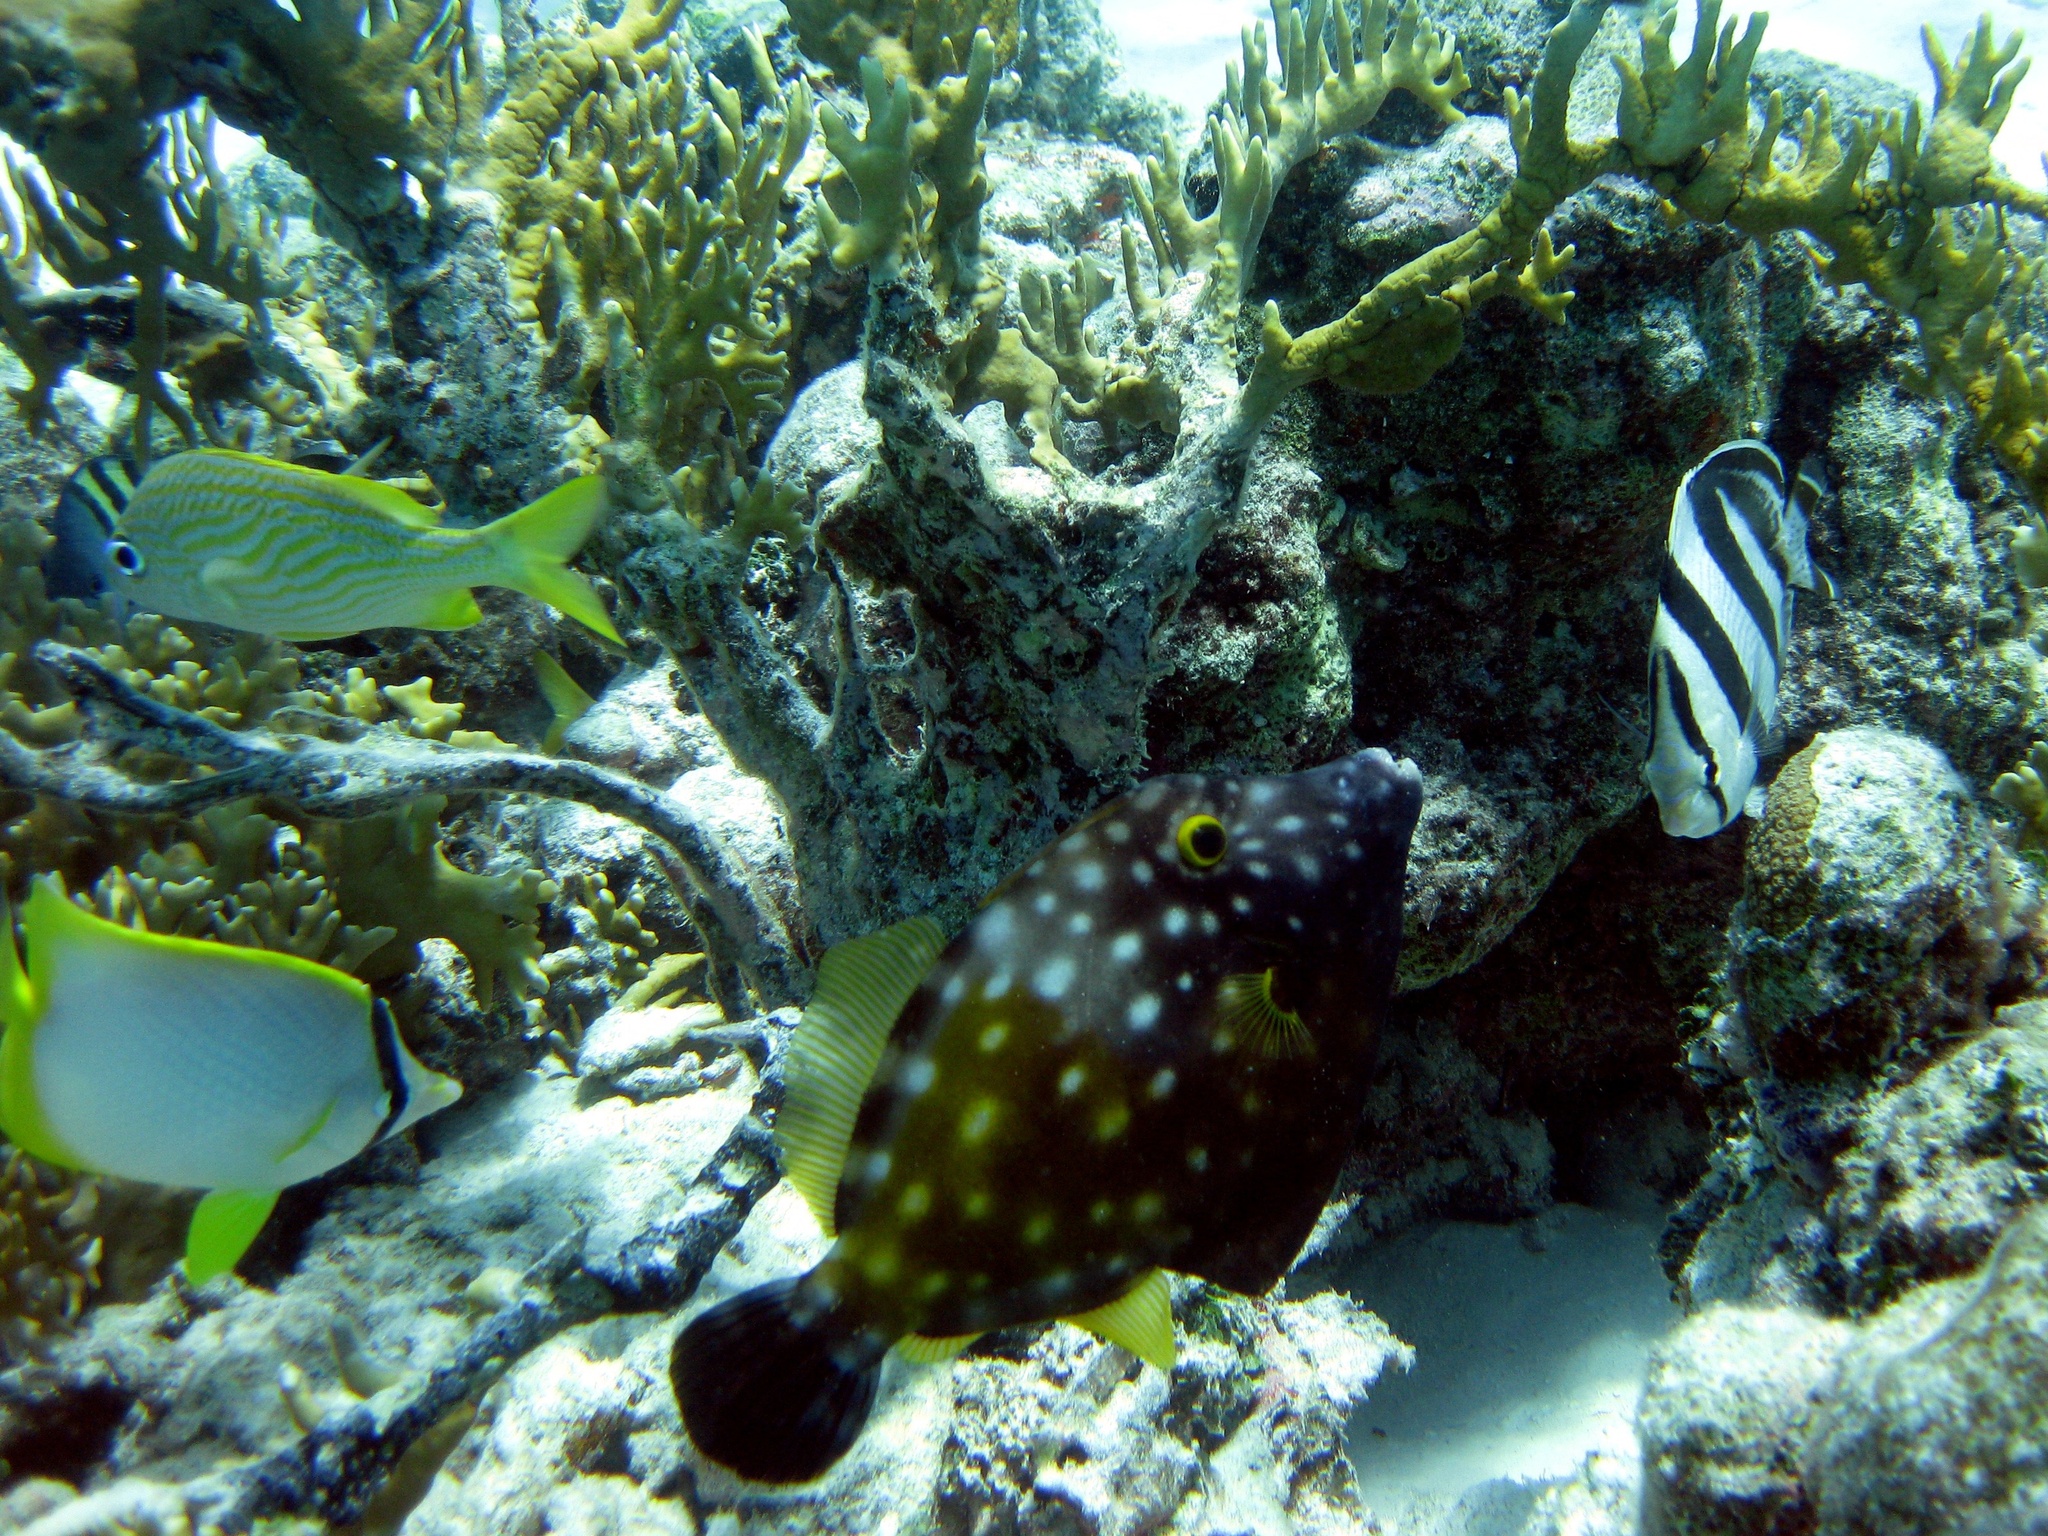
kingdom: Animalia
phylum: Chordata
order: Tetraodontiformes
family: Monacanthidae
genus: Cantherhines
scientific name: Cantherhines macrocerus
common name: Whitespotted filefish
